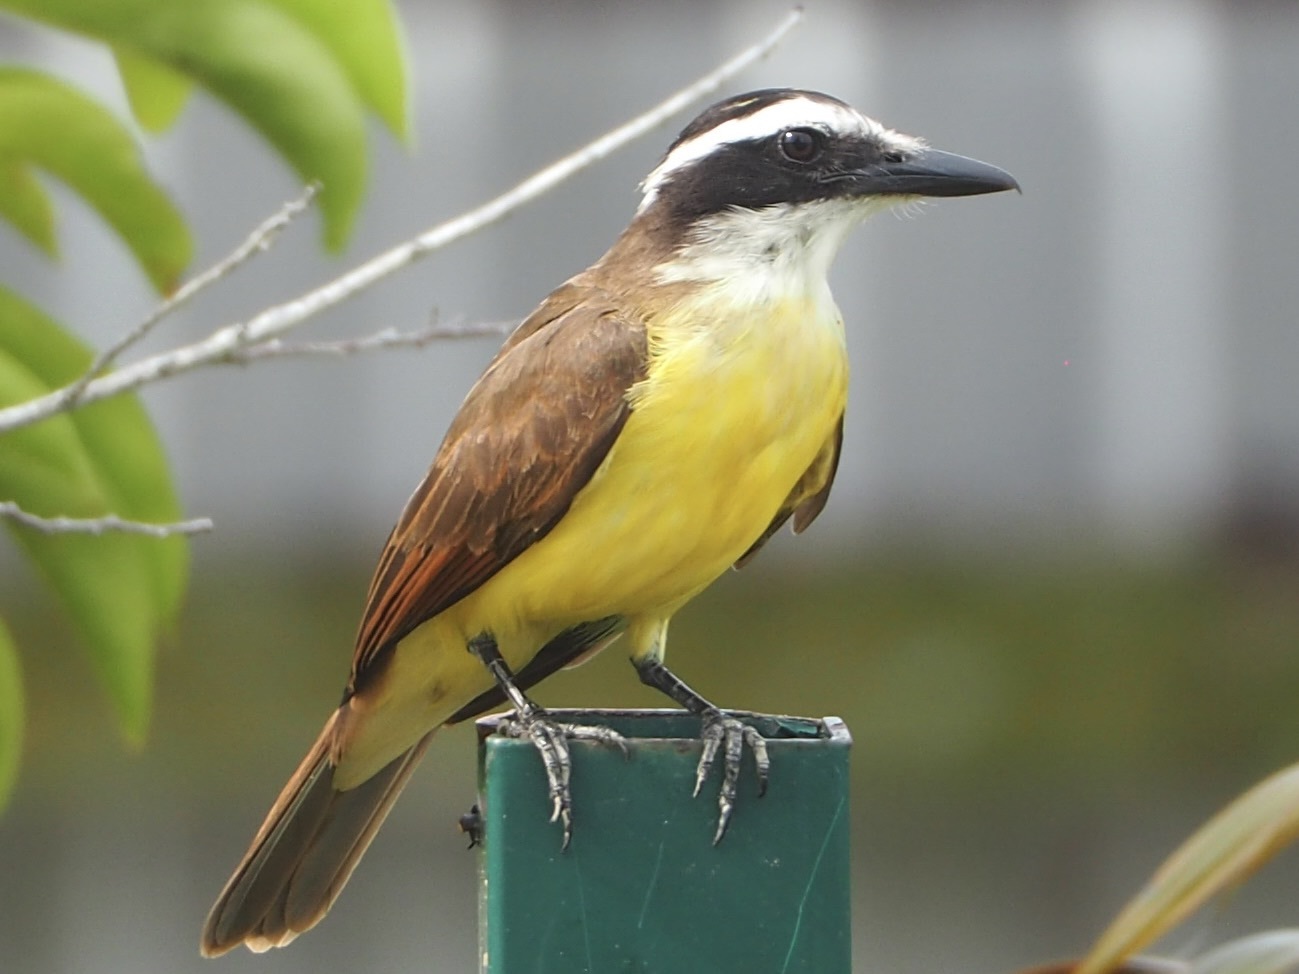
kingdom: Animalia
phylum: Chordata
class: Aves
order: Passeriformes
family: Tyrannidae
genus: Pitangus
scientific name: Pitangus sulphuratus
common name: Great kiskadee
